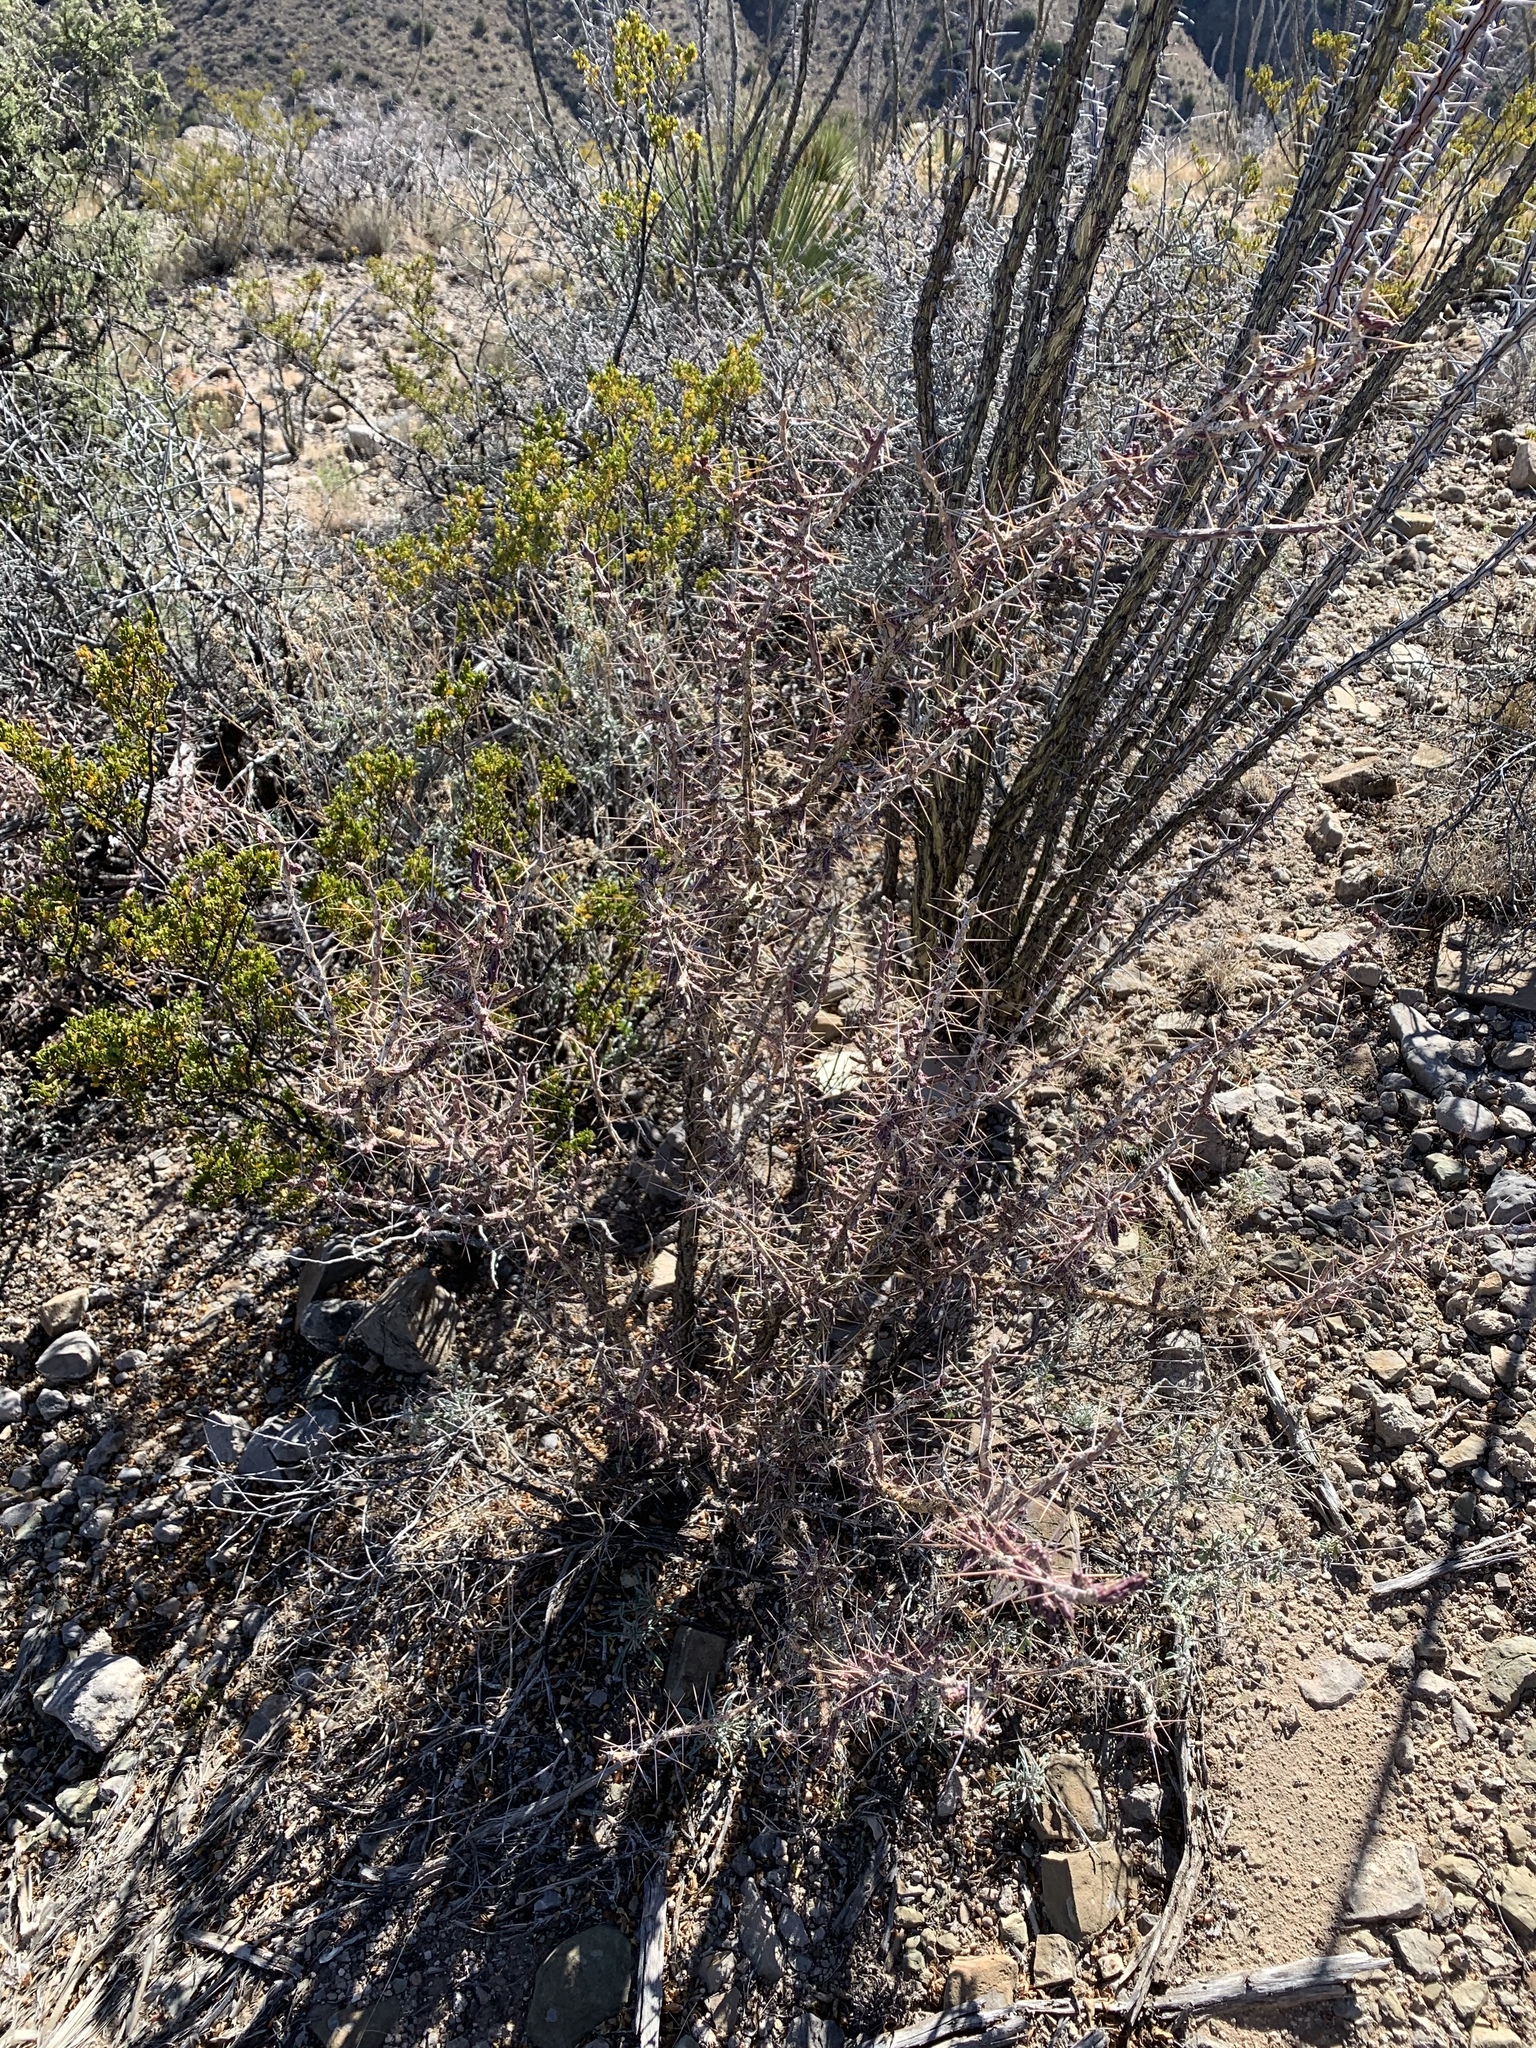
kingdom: Plantae
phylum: Tracheophyta
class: Magnoliopsida
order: Caryophyllales
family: Cactaceae
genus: Cylindropuntia
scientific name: Cylindropuntia leptocaulis
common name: Christmas cactus
